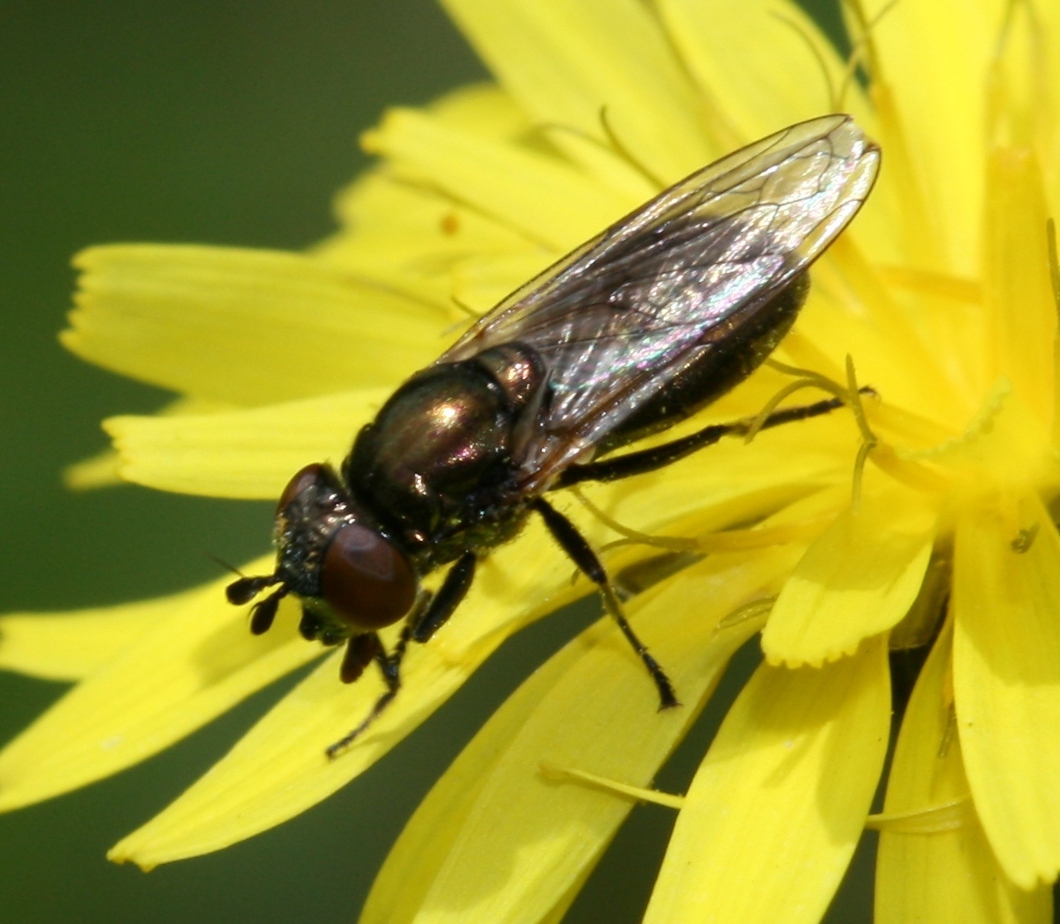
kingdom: Animalia
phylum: Arthropoda
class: Insecta
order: Diptera
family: Syrphidae
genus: Orthonevra
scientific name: Orthonevra splendens
